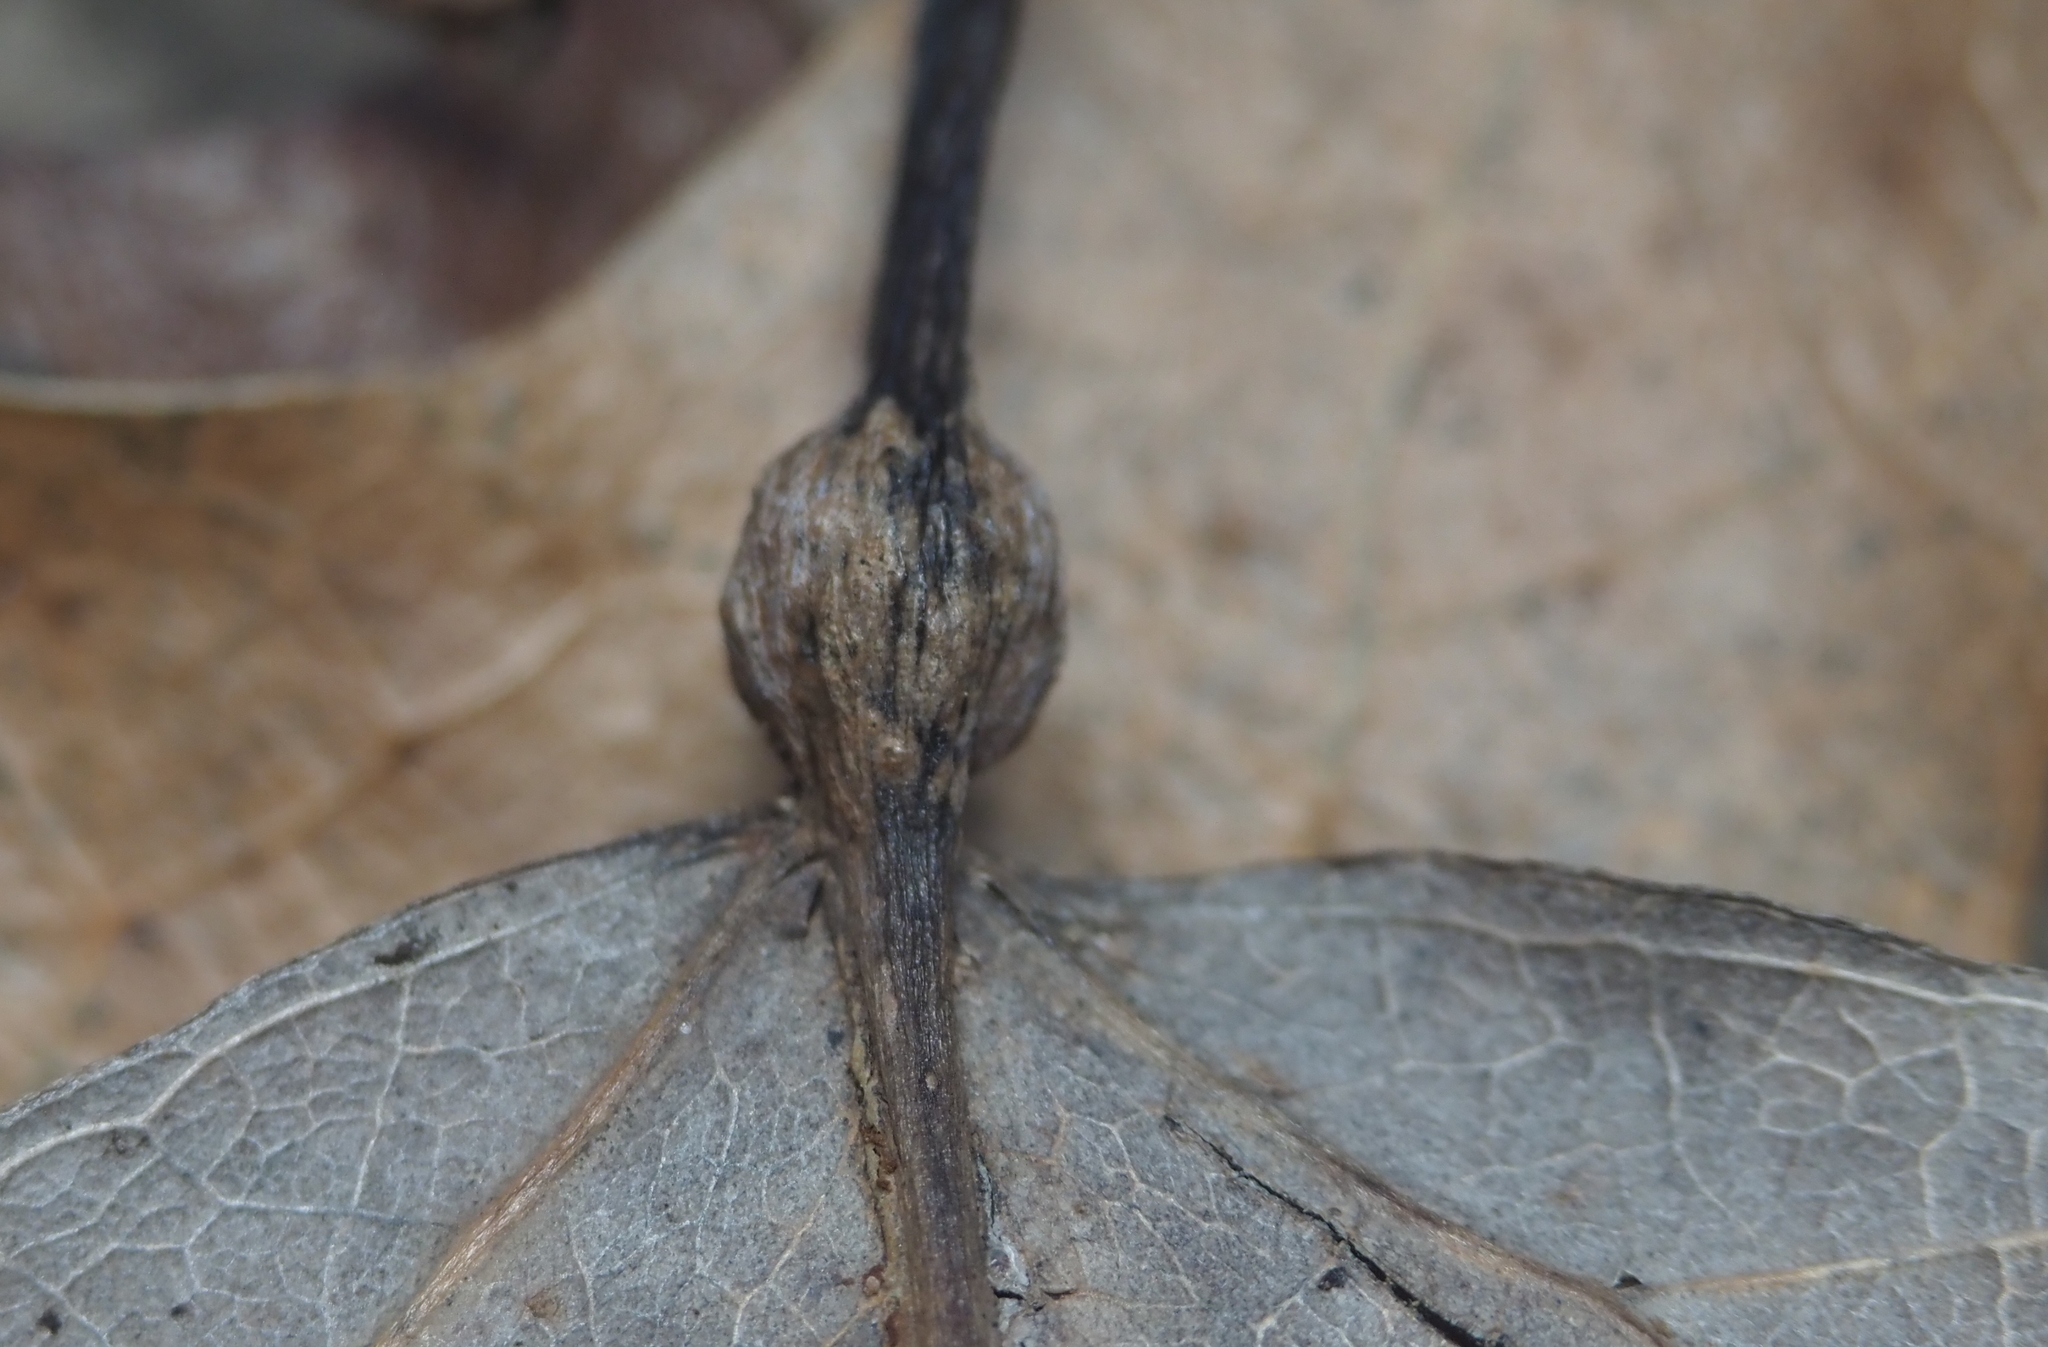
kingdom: Animalia
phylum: Arthropoda
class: Insecta
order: Lepidoptera
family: Nepticulidae
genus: Ectoedemia
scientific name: Ectoedemia populella
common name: Aspen petiole gall moth
